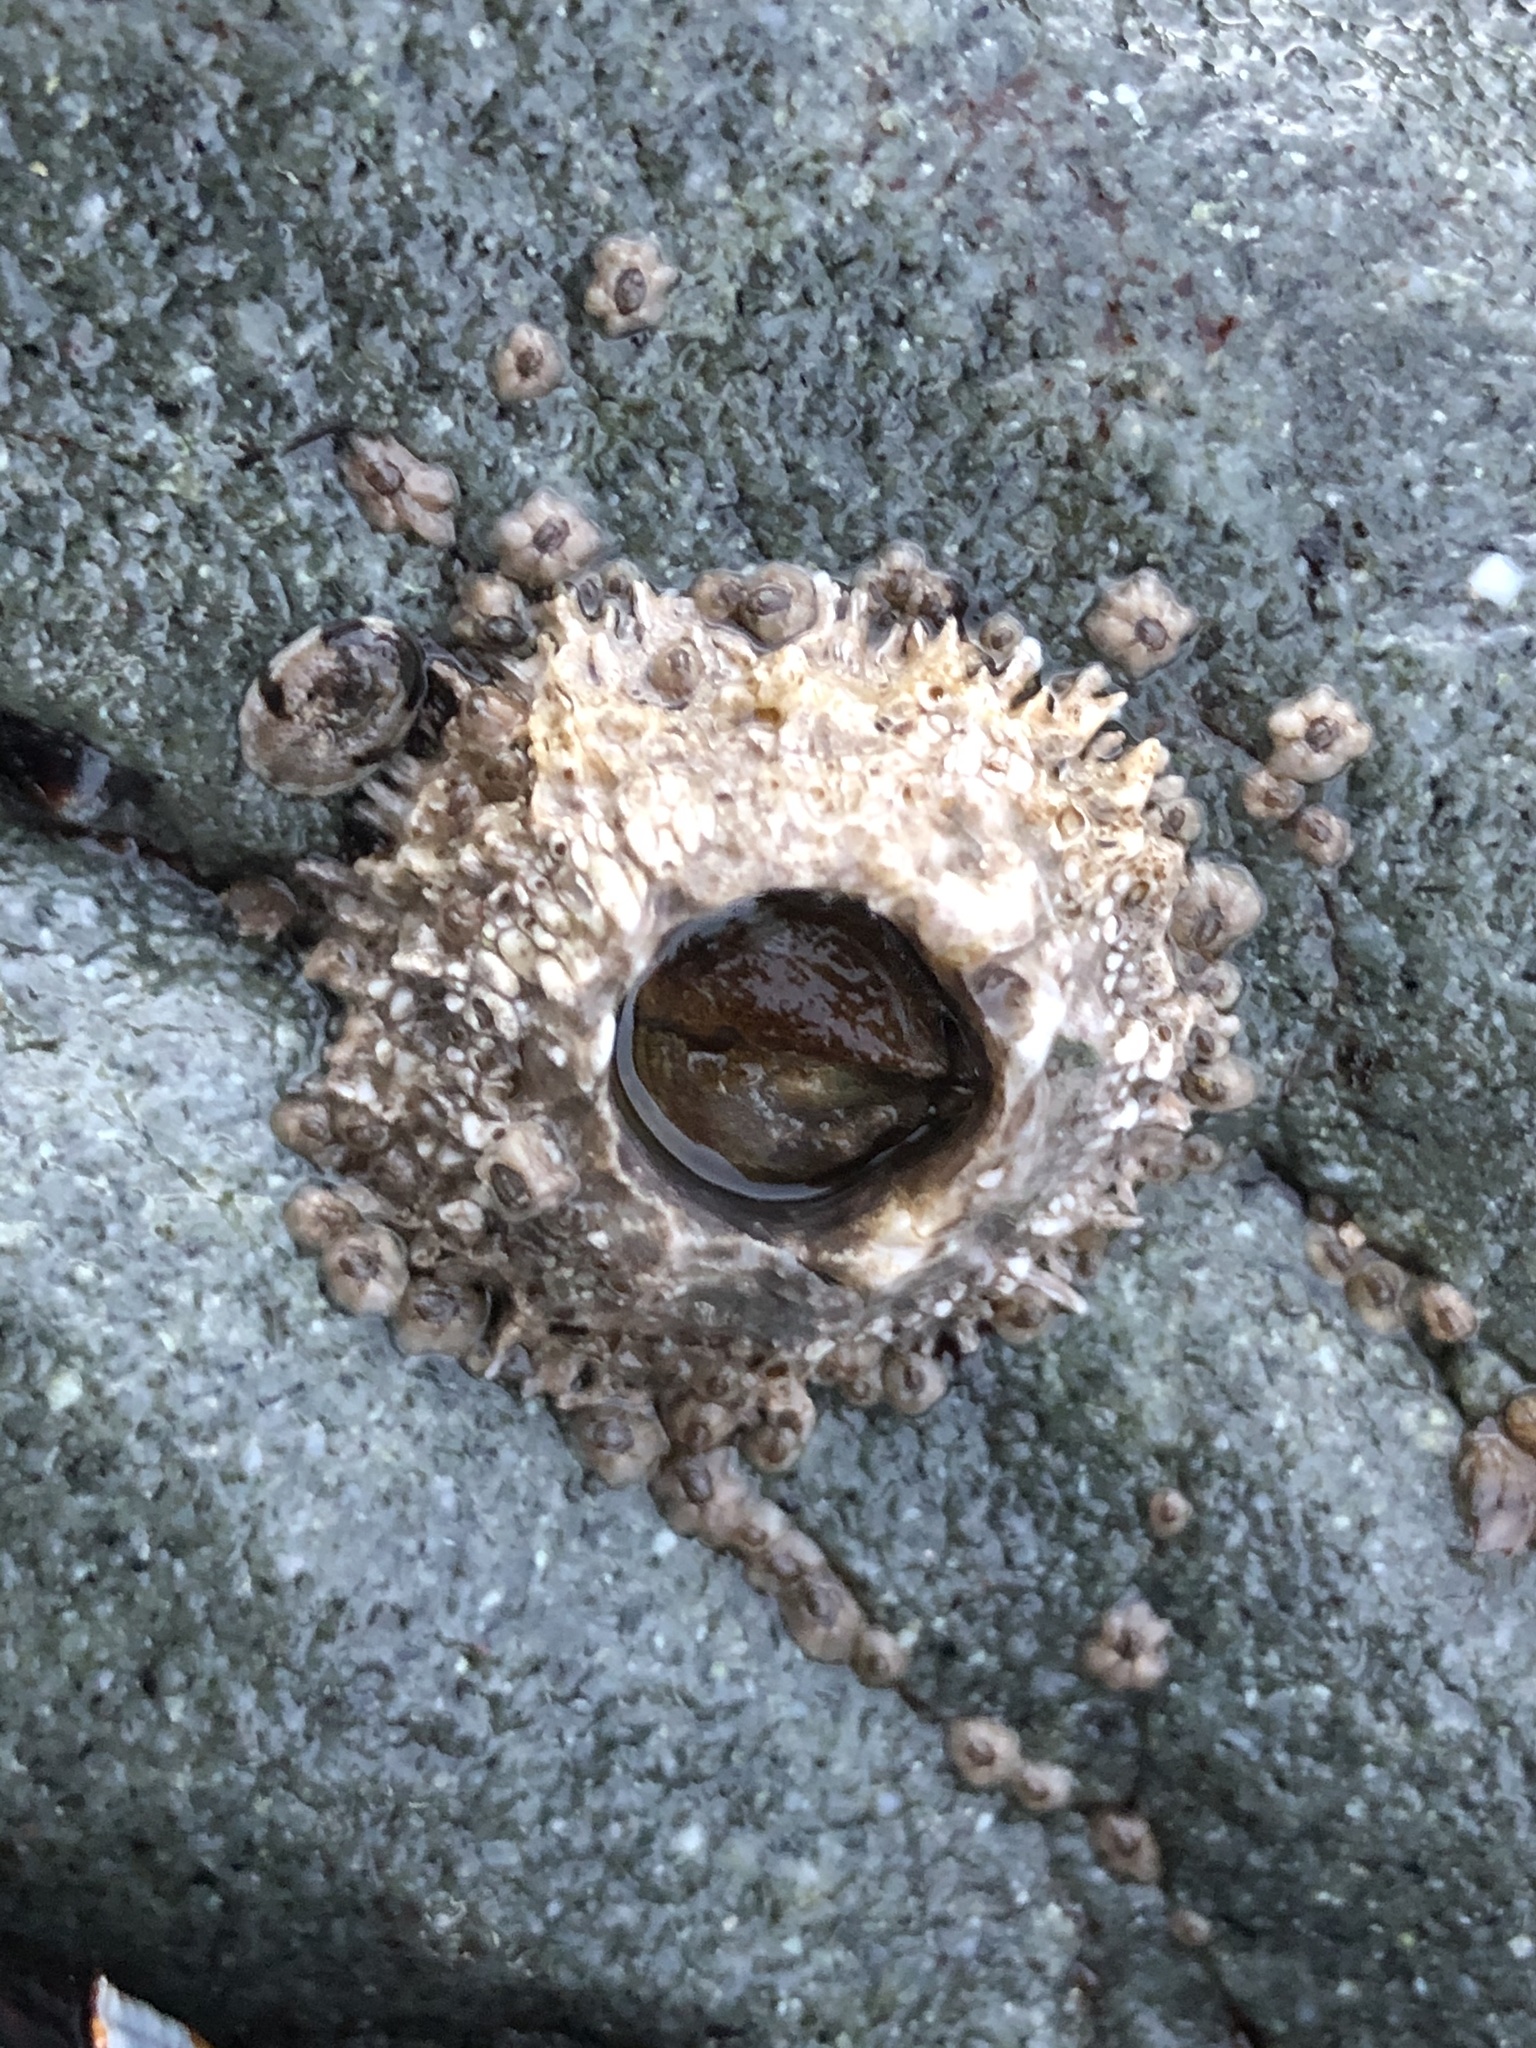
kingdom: Animalia
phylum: Arthropoda
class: Maxillopoda
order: Sessilia
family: Archaeobalanidae
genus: Semibalanus
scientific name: Semibalanus cariosus
